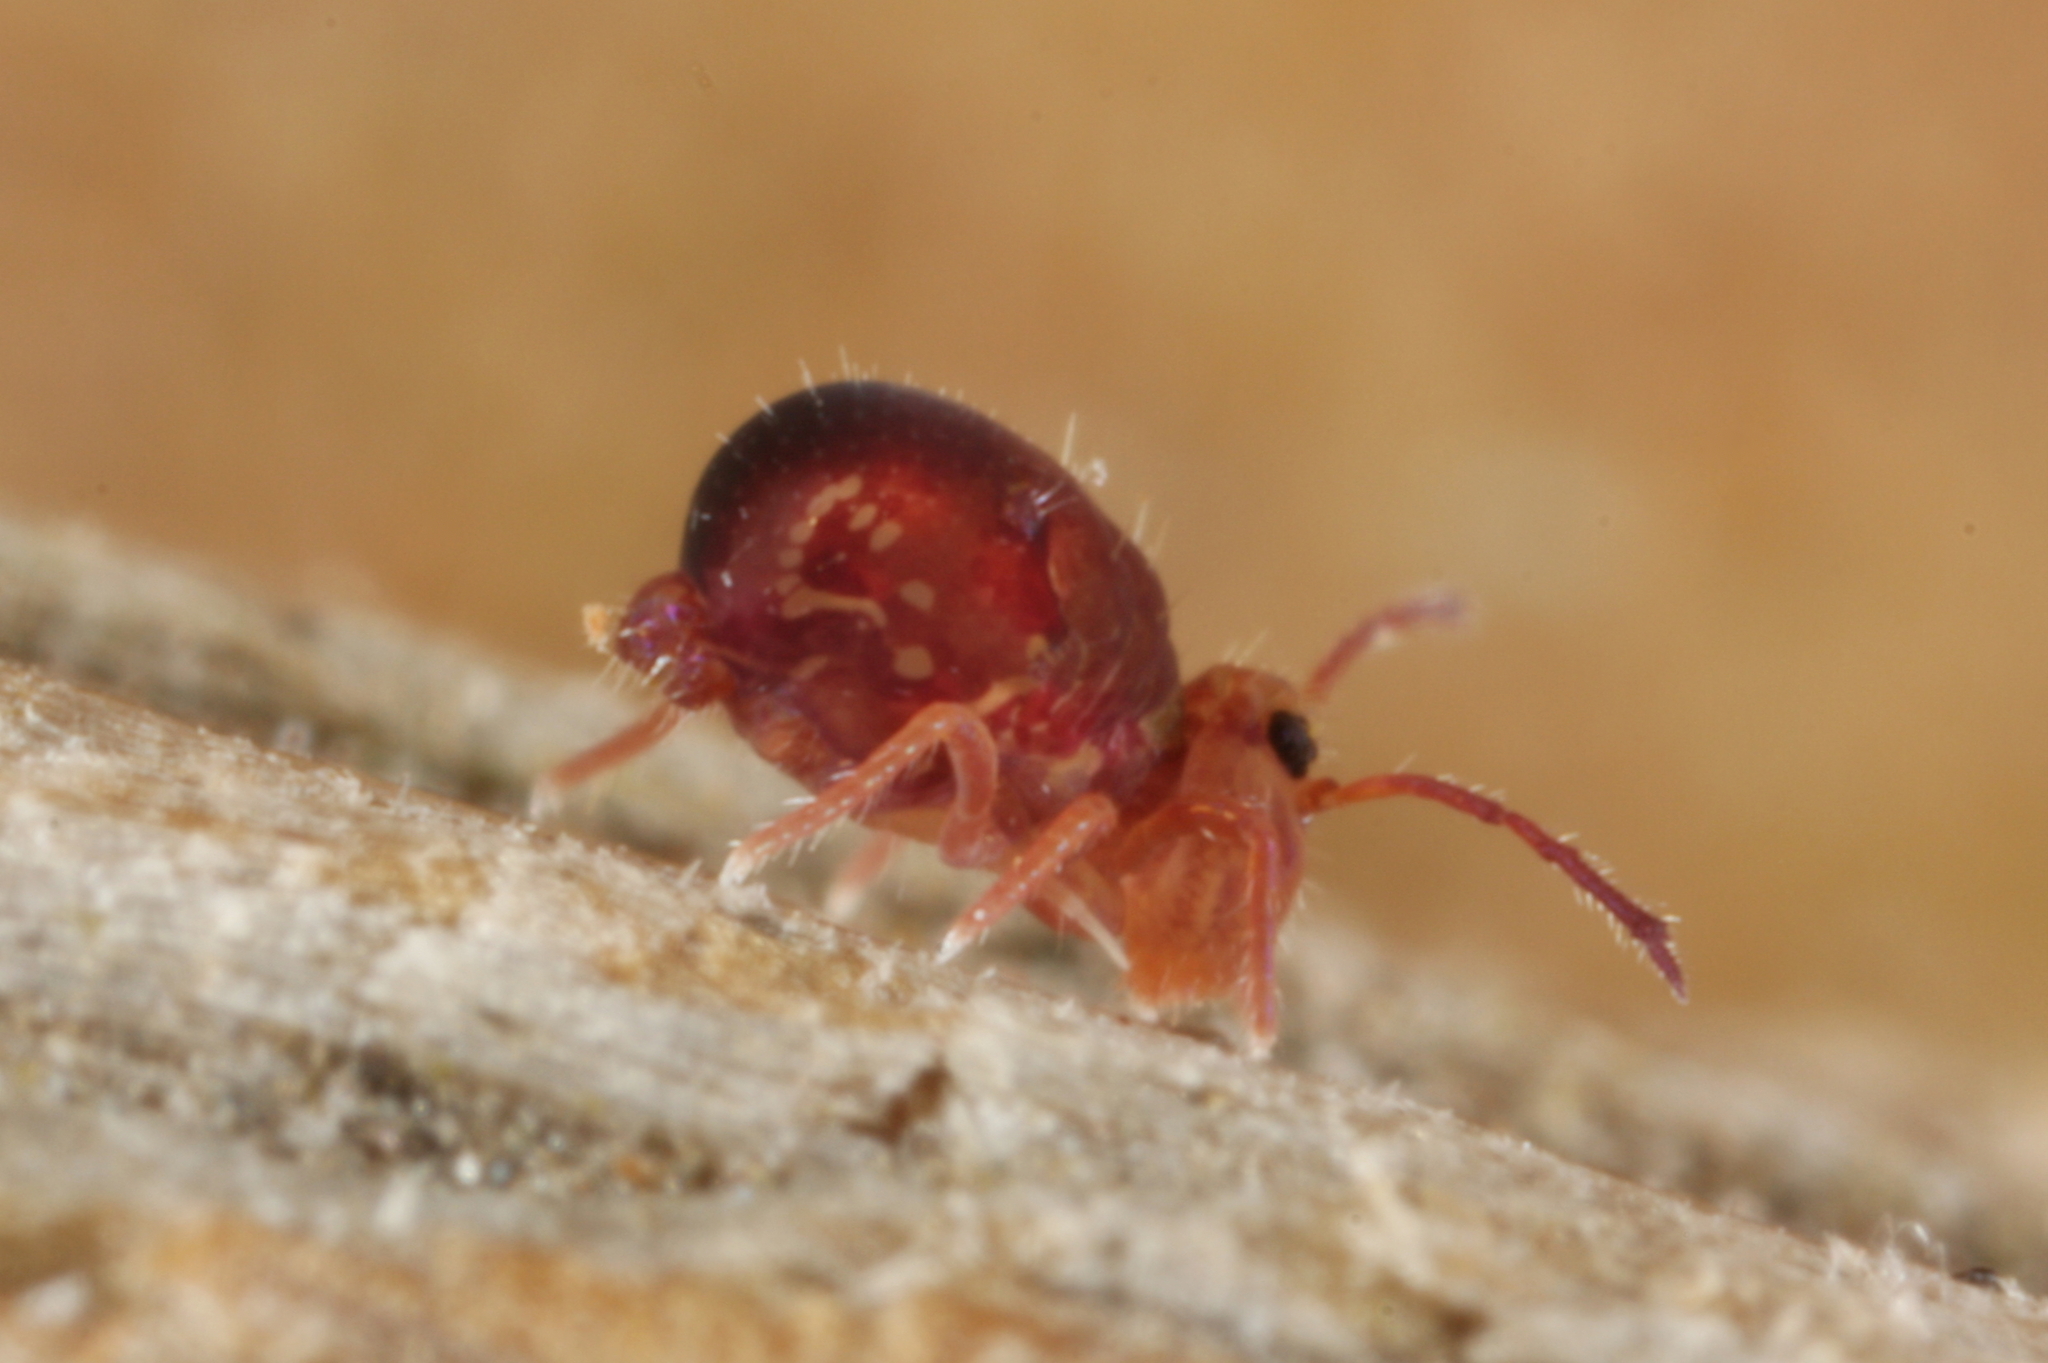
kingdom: Animalia
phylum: Arthropoda
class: Collembola
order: Symphypleona
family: Dicyrtomidae
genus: Dicyrtomina
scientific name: Dicyrtomina ornata
